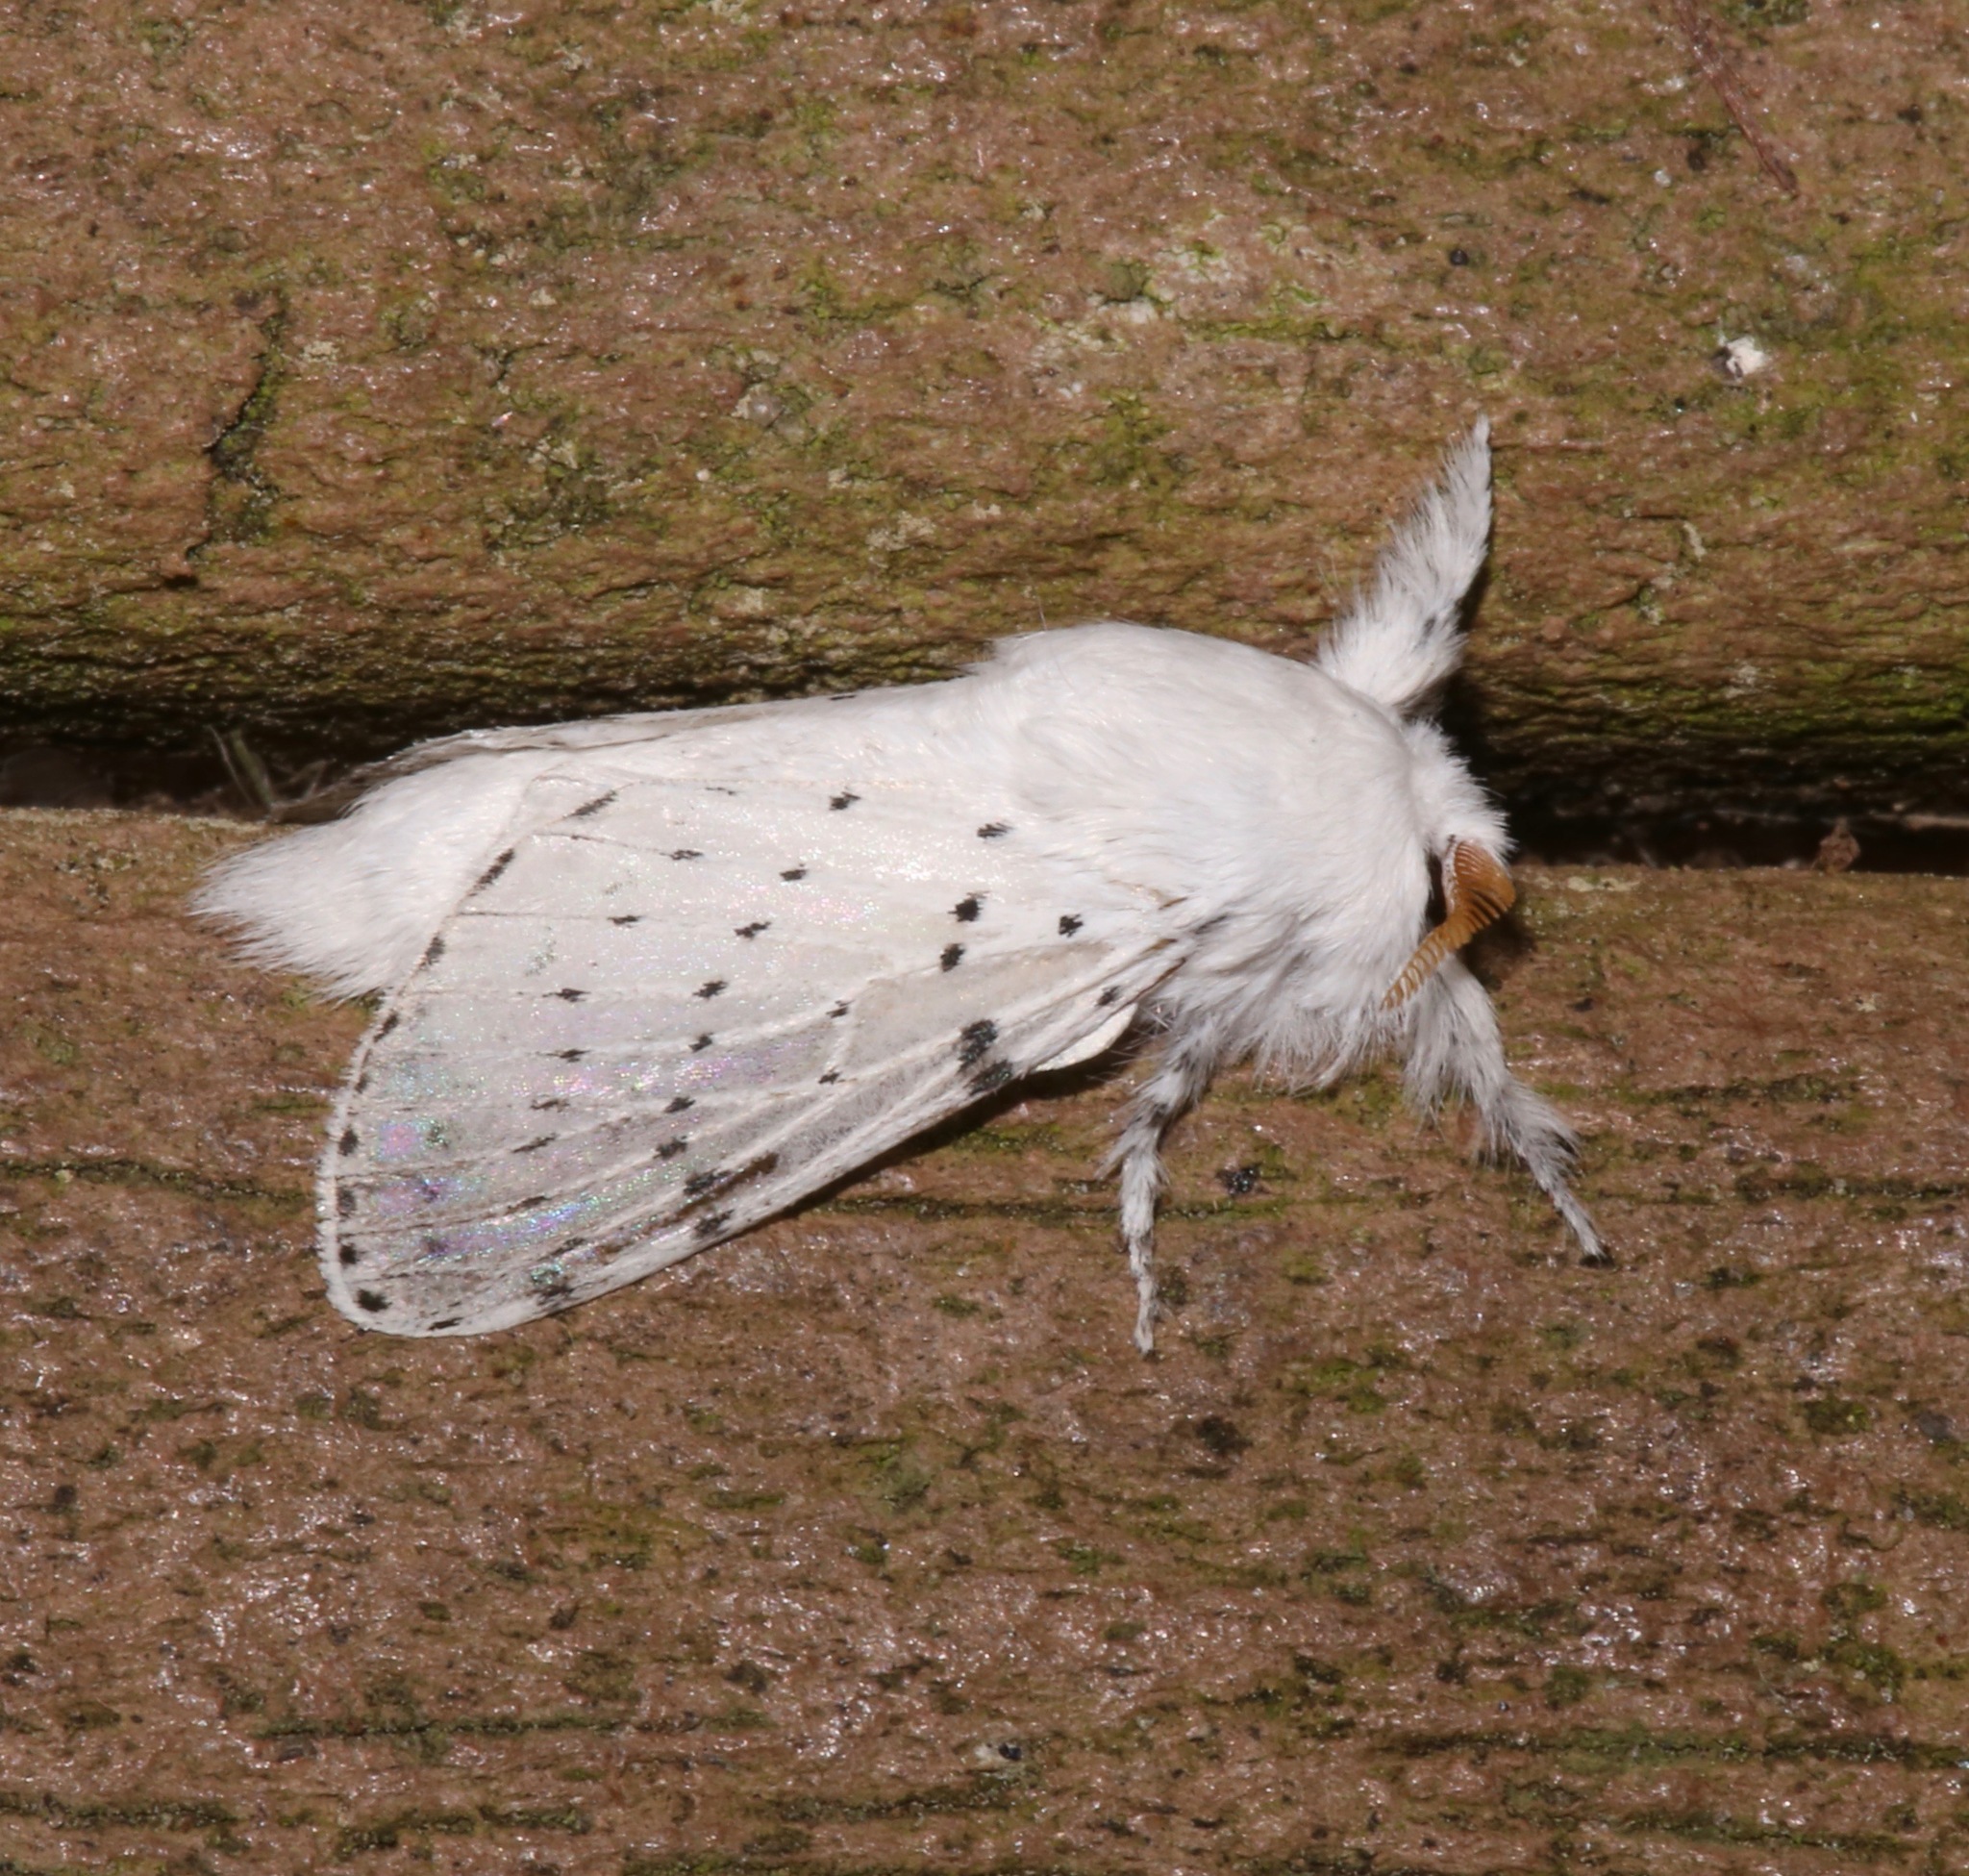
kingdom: Animalia
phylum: Arthropoda
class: Insecta
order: Lepidoptera
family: Lasiocampidae
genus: Artace
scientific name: Artace cribrarius
